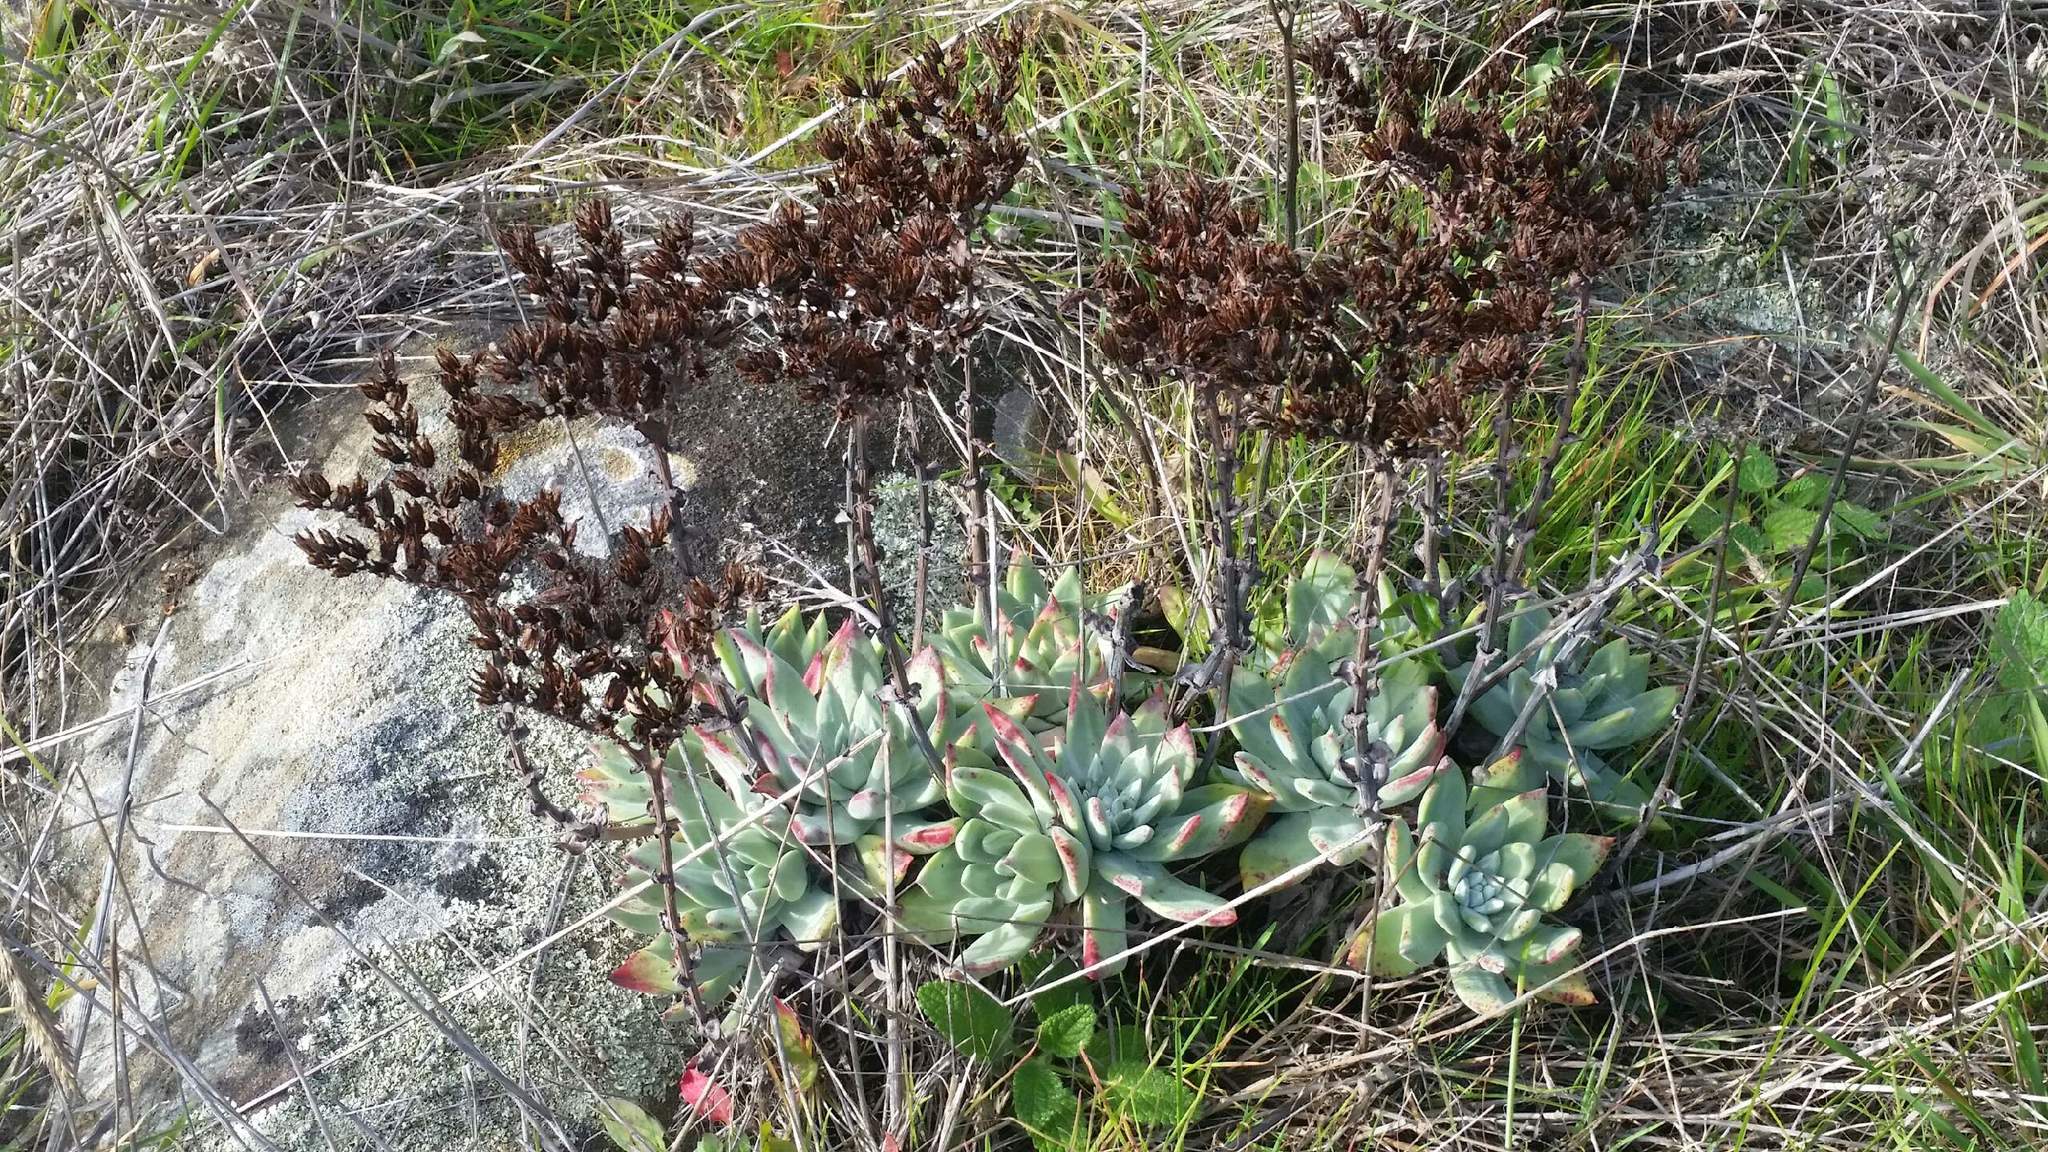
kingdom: Plantae
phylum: Tracheophyta
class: Magnoliopsida
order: Saxifragales
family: Crassulaceae
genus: Dudleya
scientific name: Dudleya farinosa
